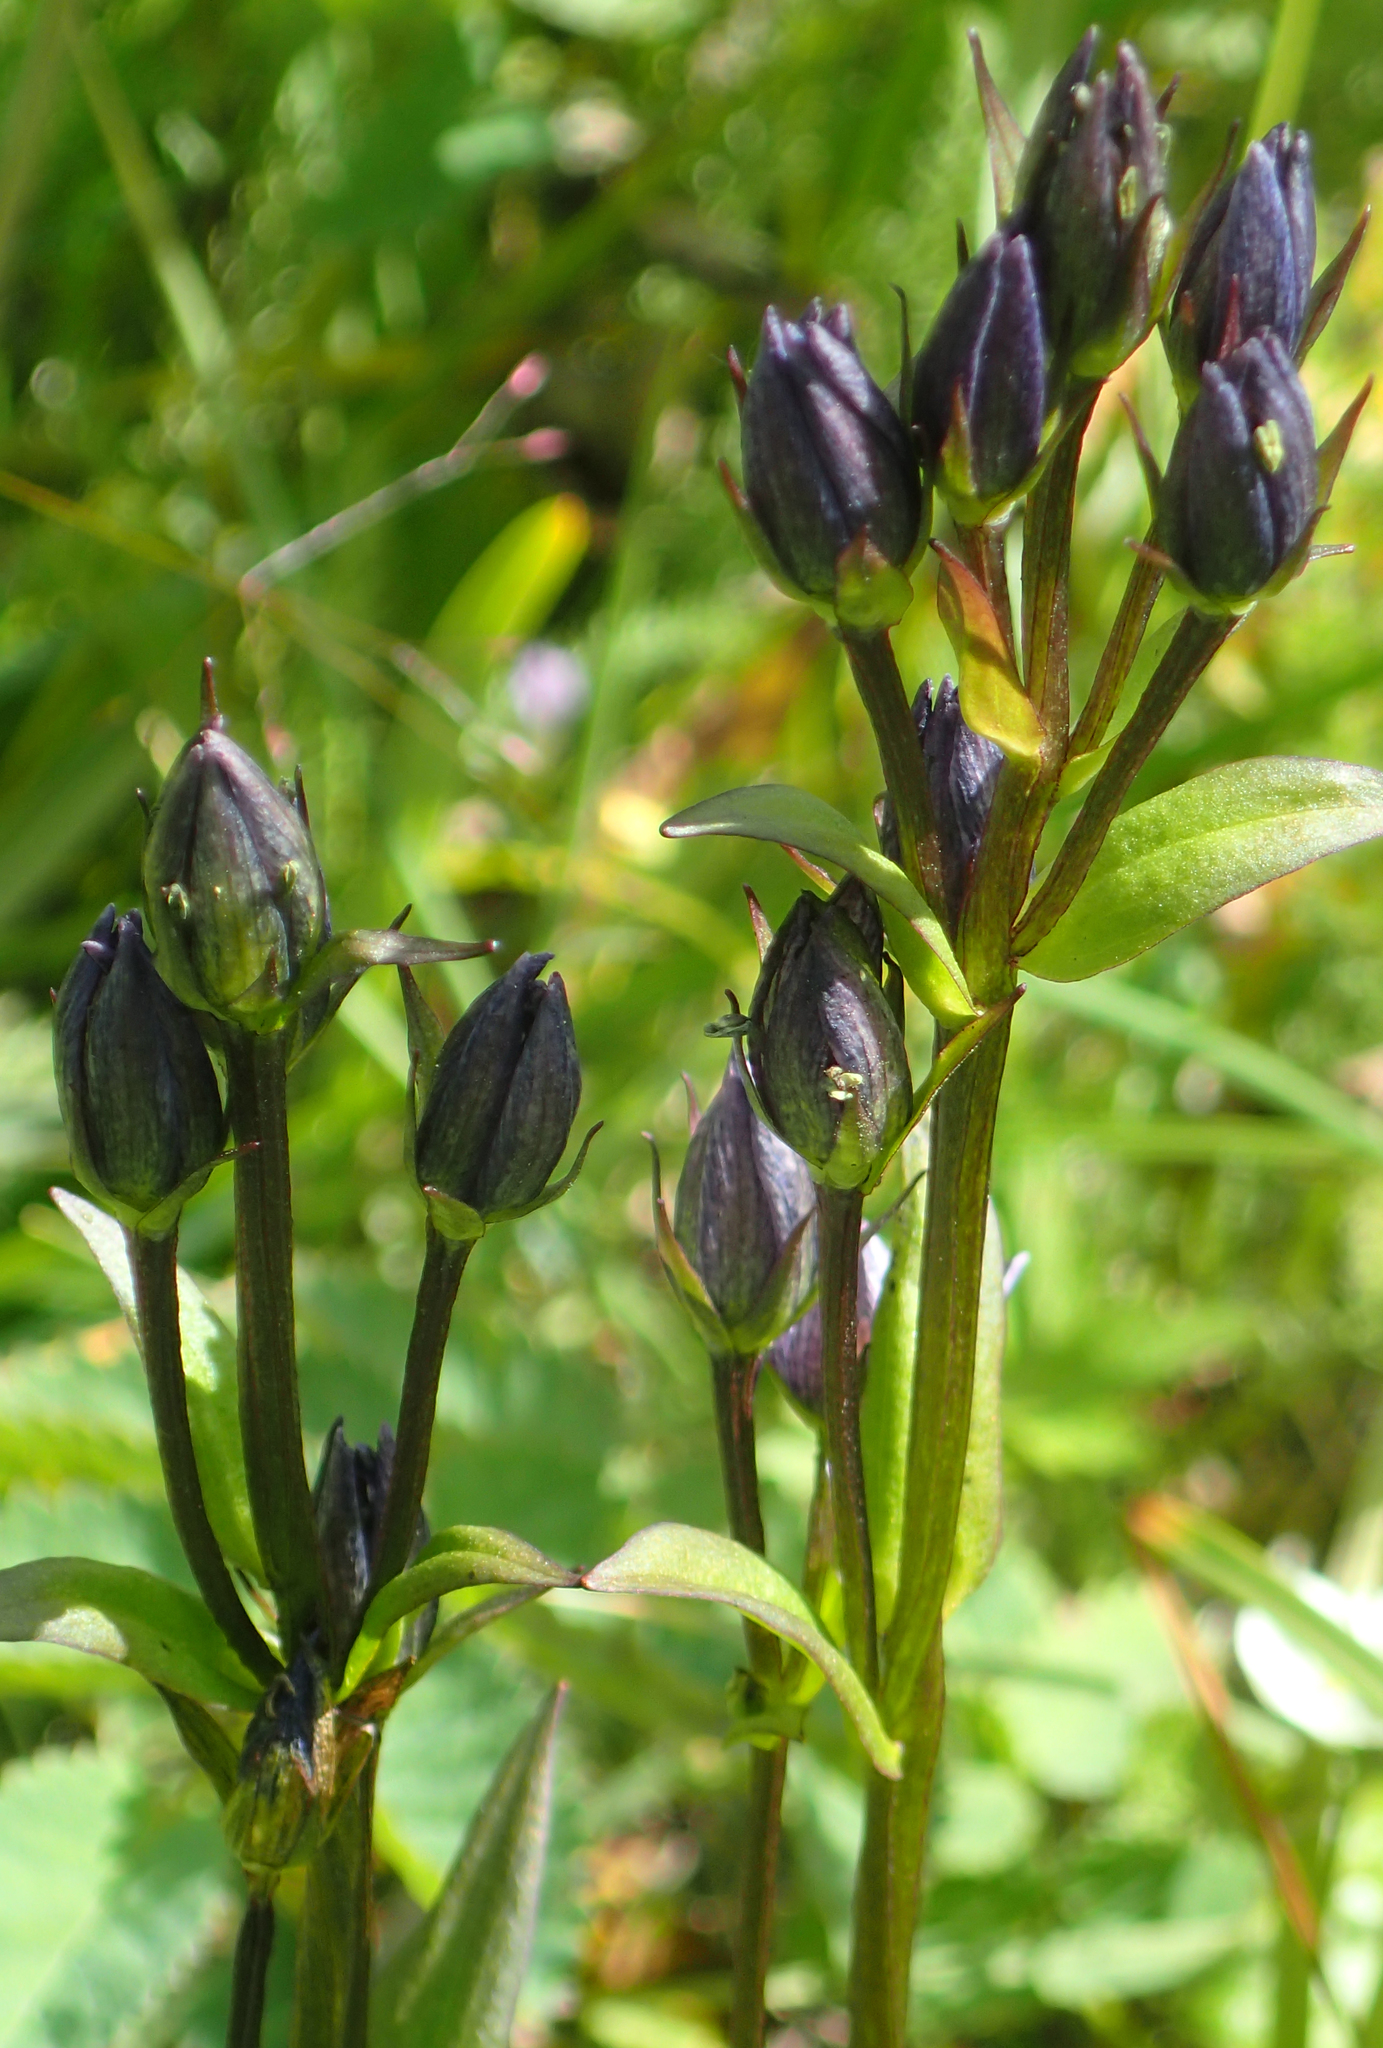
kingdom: Plantae
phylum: Tracheophyta
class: Magnoliopsida
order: Gentianales
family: Gentianaceae
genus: Swertia
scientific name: Swertia perennis
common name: Alpine bog swertia
